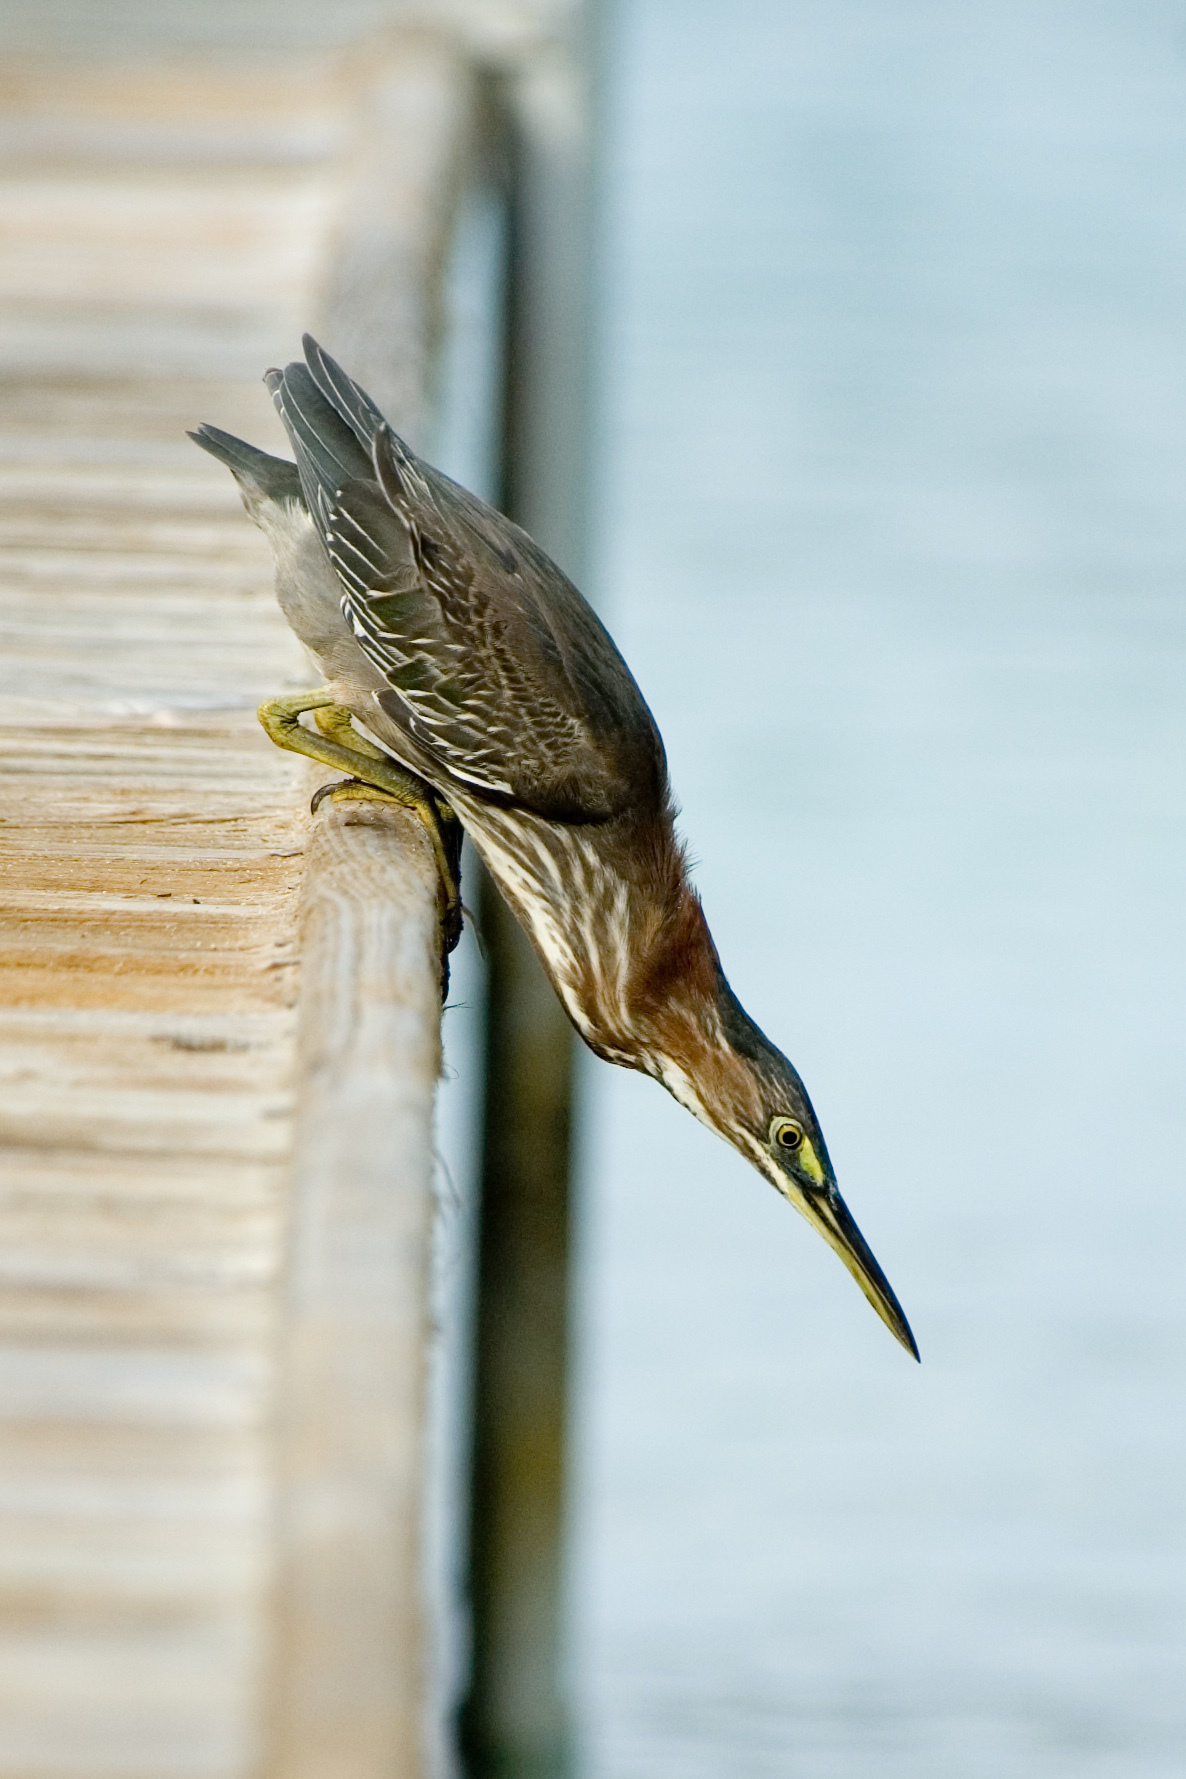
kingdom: Animalia
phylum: Chordata
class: Aves
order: Pelecaniformes
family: Ardeidae
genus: Butorides
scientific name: Butorides virescens
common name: Green heron
